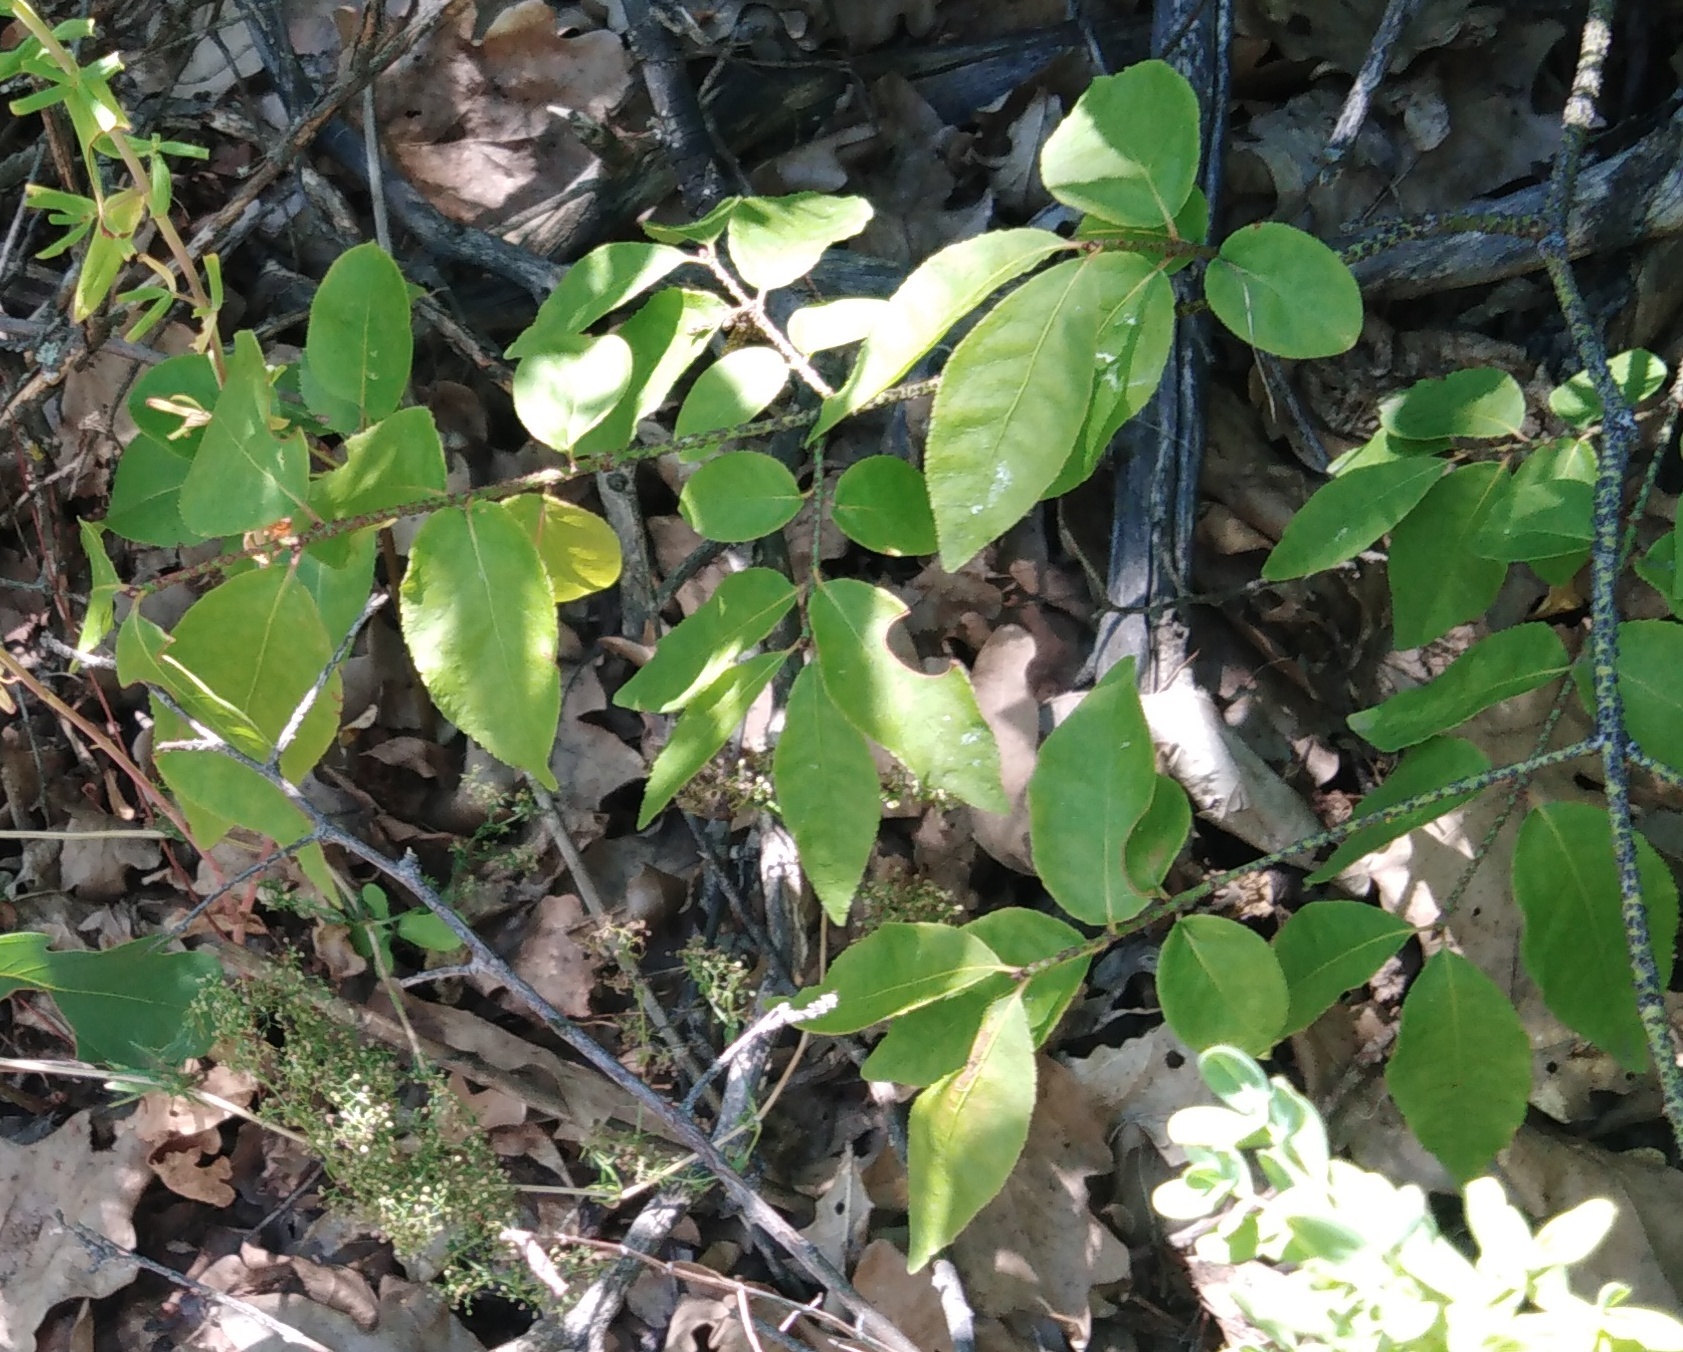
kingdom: Plantae
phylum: Tracheophyta
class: Magnoliopsida
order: Celastrales
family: Celastraceae
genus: Euonymus
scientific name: Euonymus verrucosus
